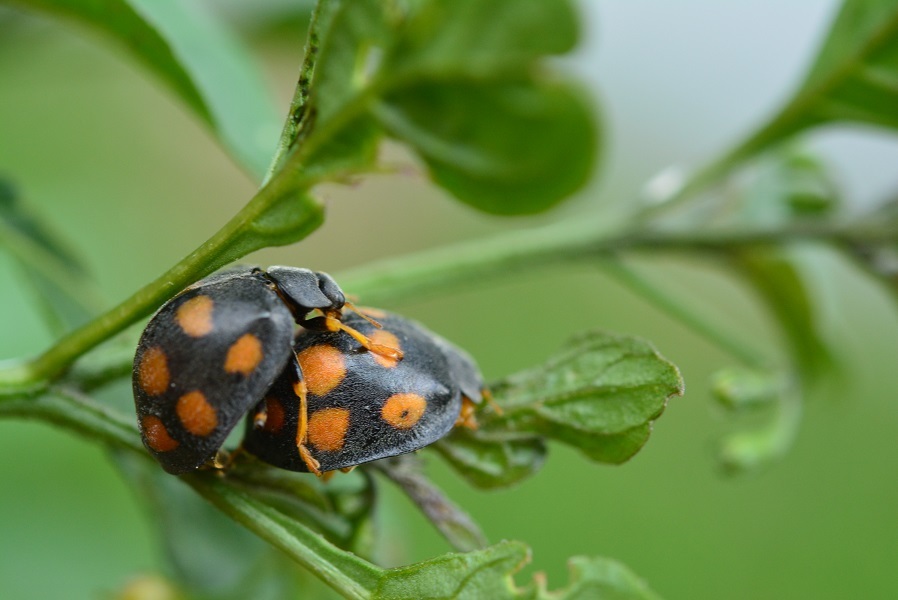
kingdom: Animalia
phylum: Arthropoda
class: Insecta
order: Coleoptera
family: Coccinellidae
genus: Epilachna
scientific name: Epilachna
